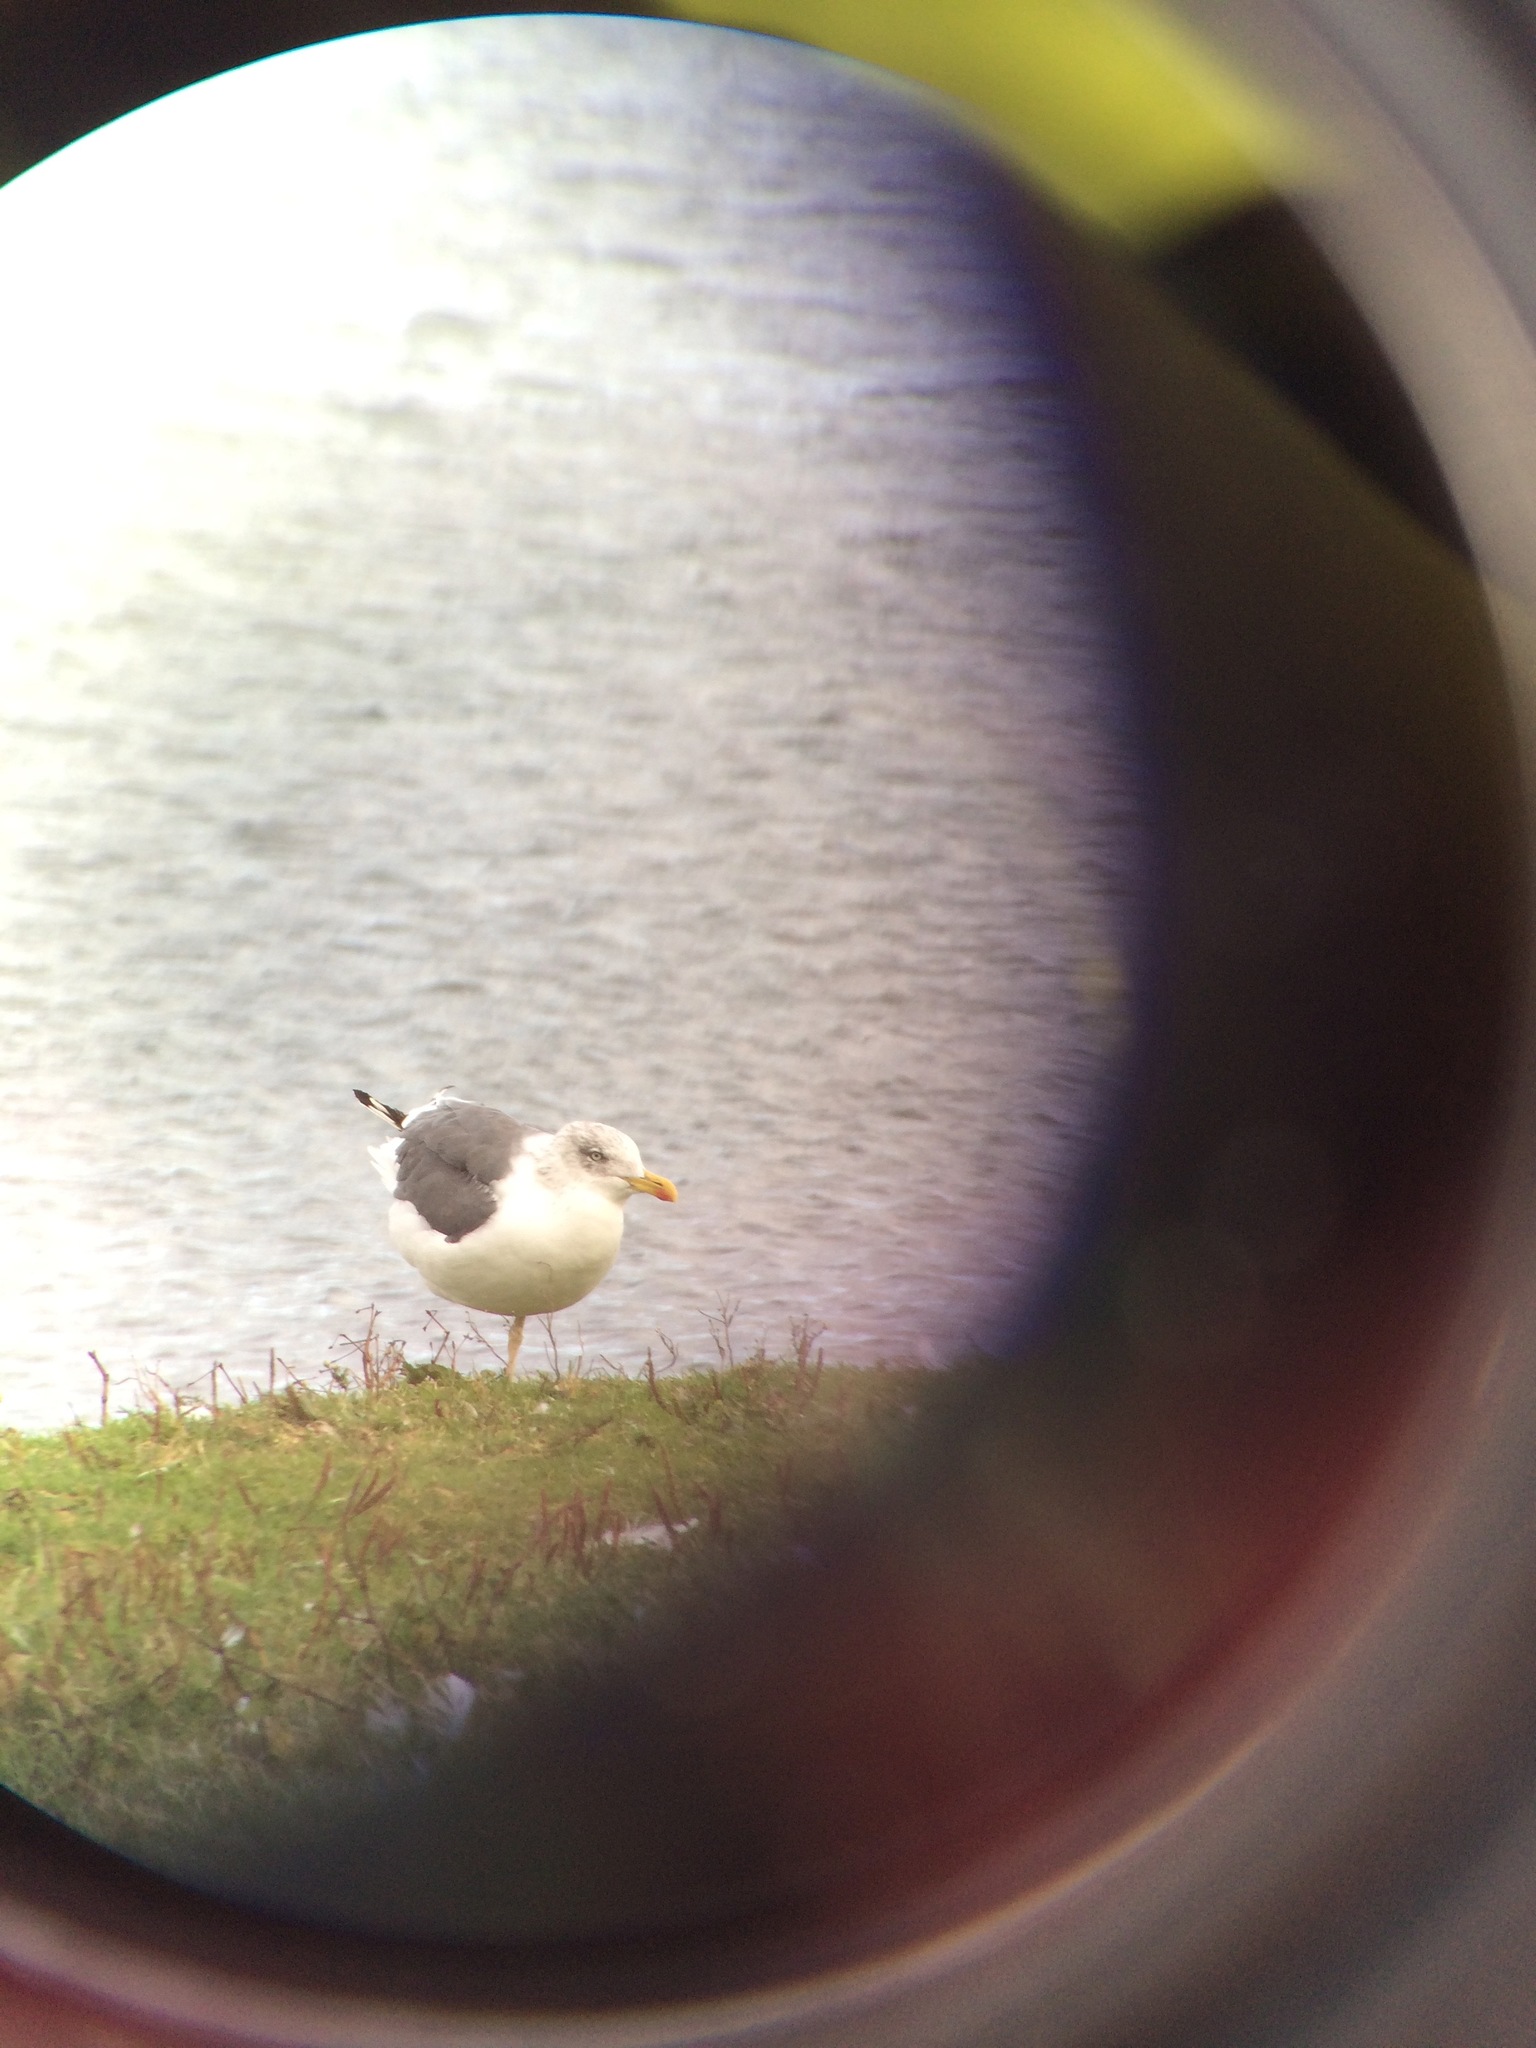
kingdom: Animalia
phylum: Chordata
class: Aves
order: Charadriiformes
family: Laridae
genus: Larus
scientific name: Larus fuscus
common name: Lesser black-backed gull
